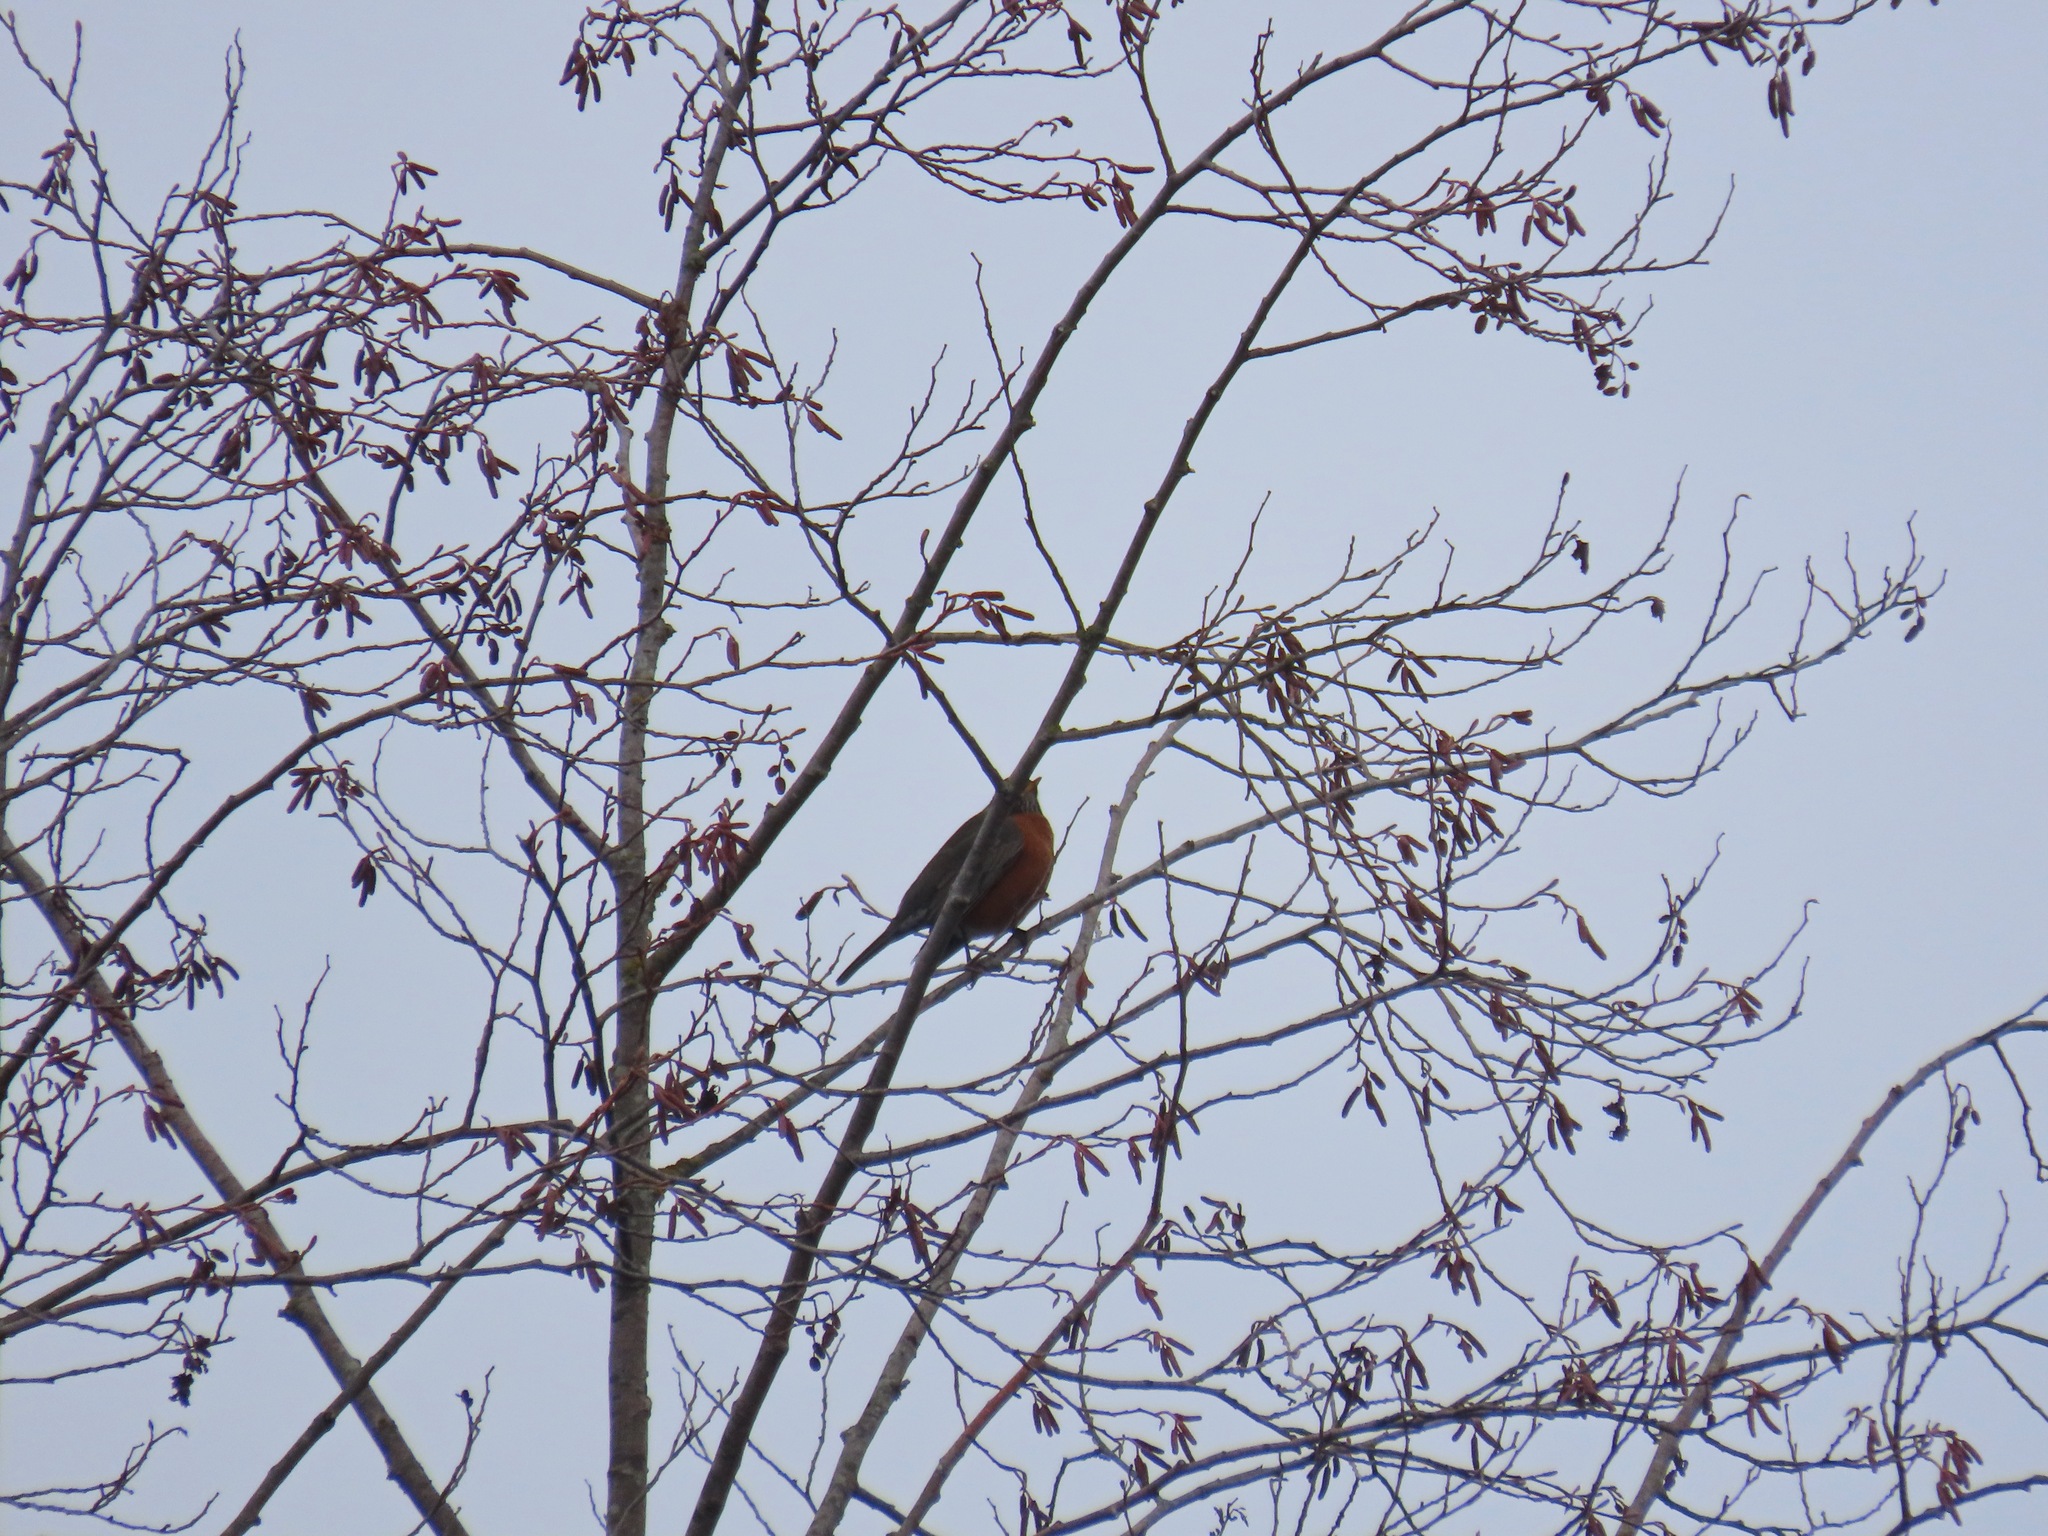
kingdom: Animalia
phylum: Chordata
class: Aves
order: Passeriformes
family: Turdidae
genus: Turdus
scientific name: Turdus migratorius
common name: American robin
